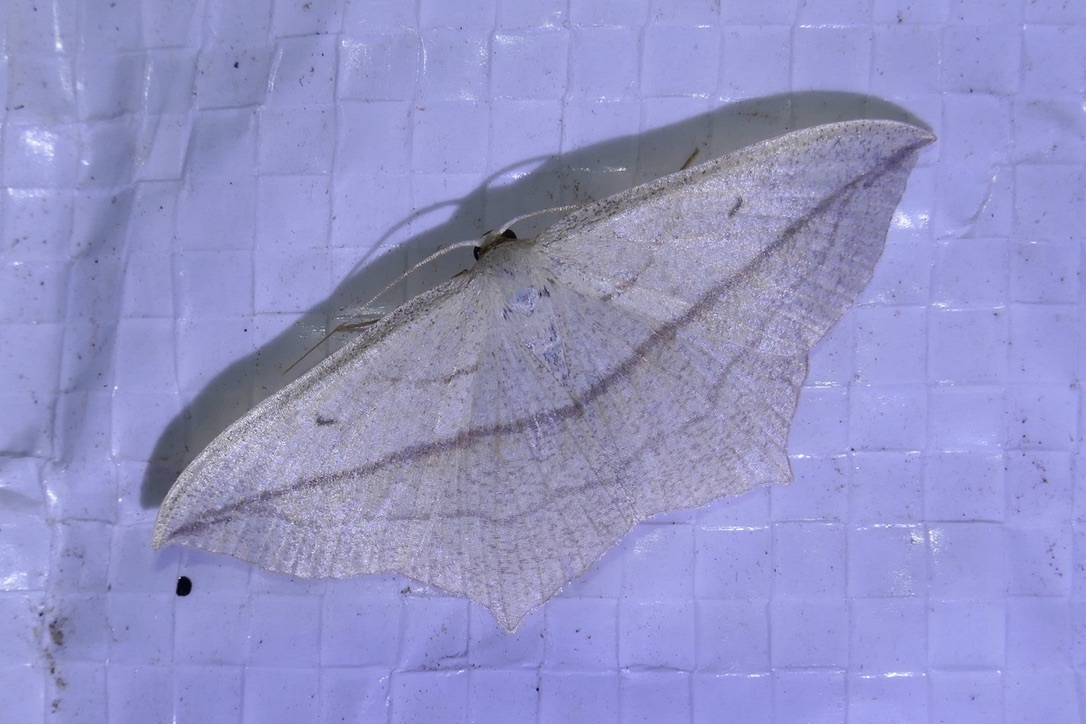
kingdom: Animalia
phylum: Arthropoda
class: Insecta
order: Lepidoptera
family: Geometridae
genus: Timandra
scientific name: Timandra comae
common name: Blood-vein
